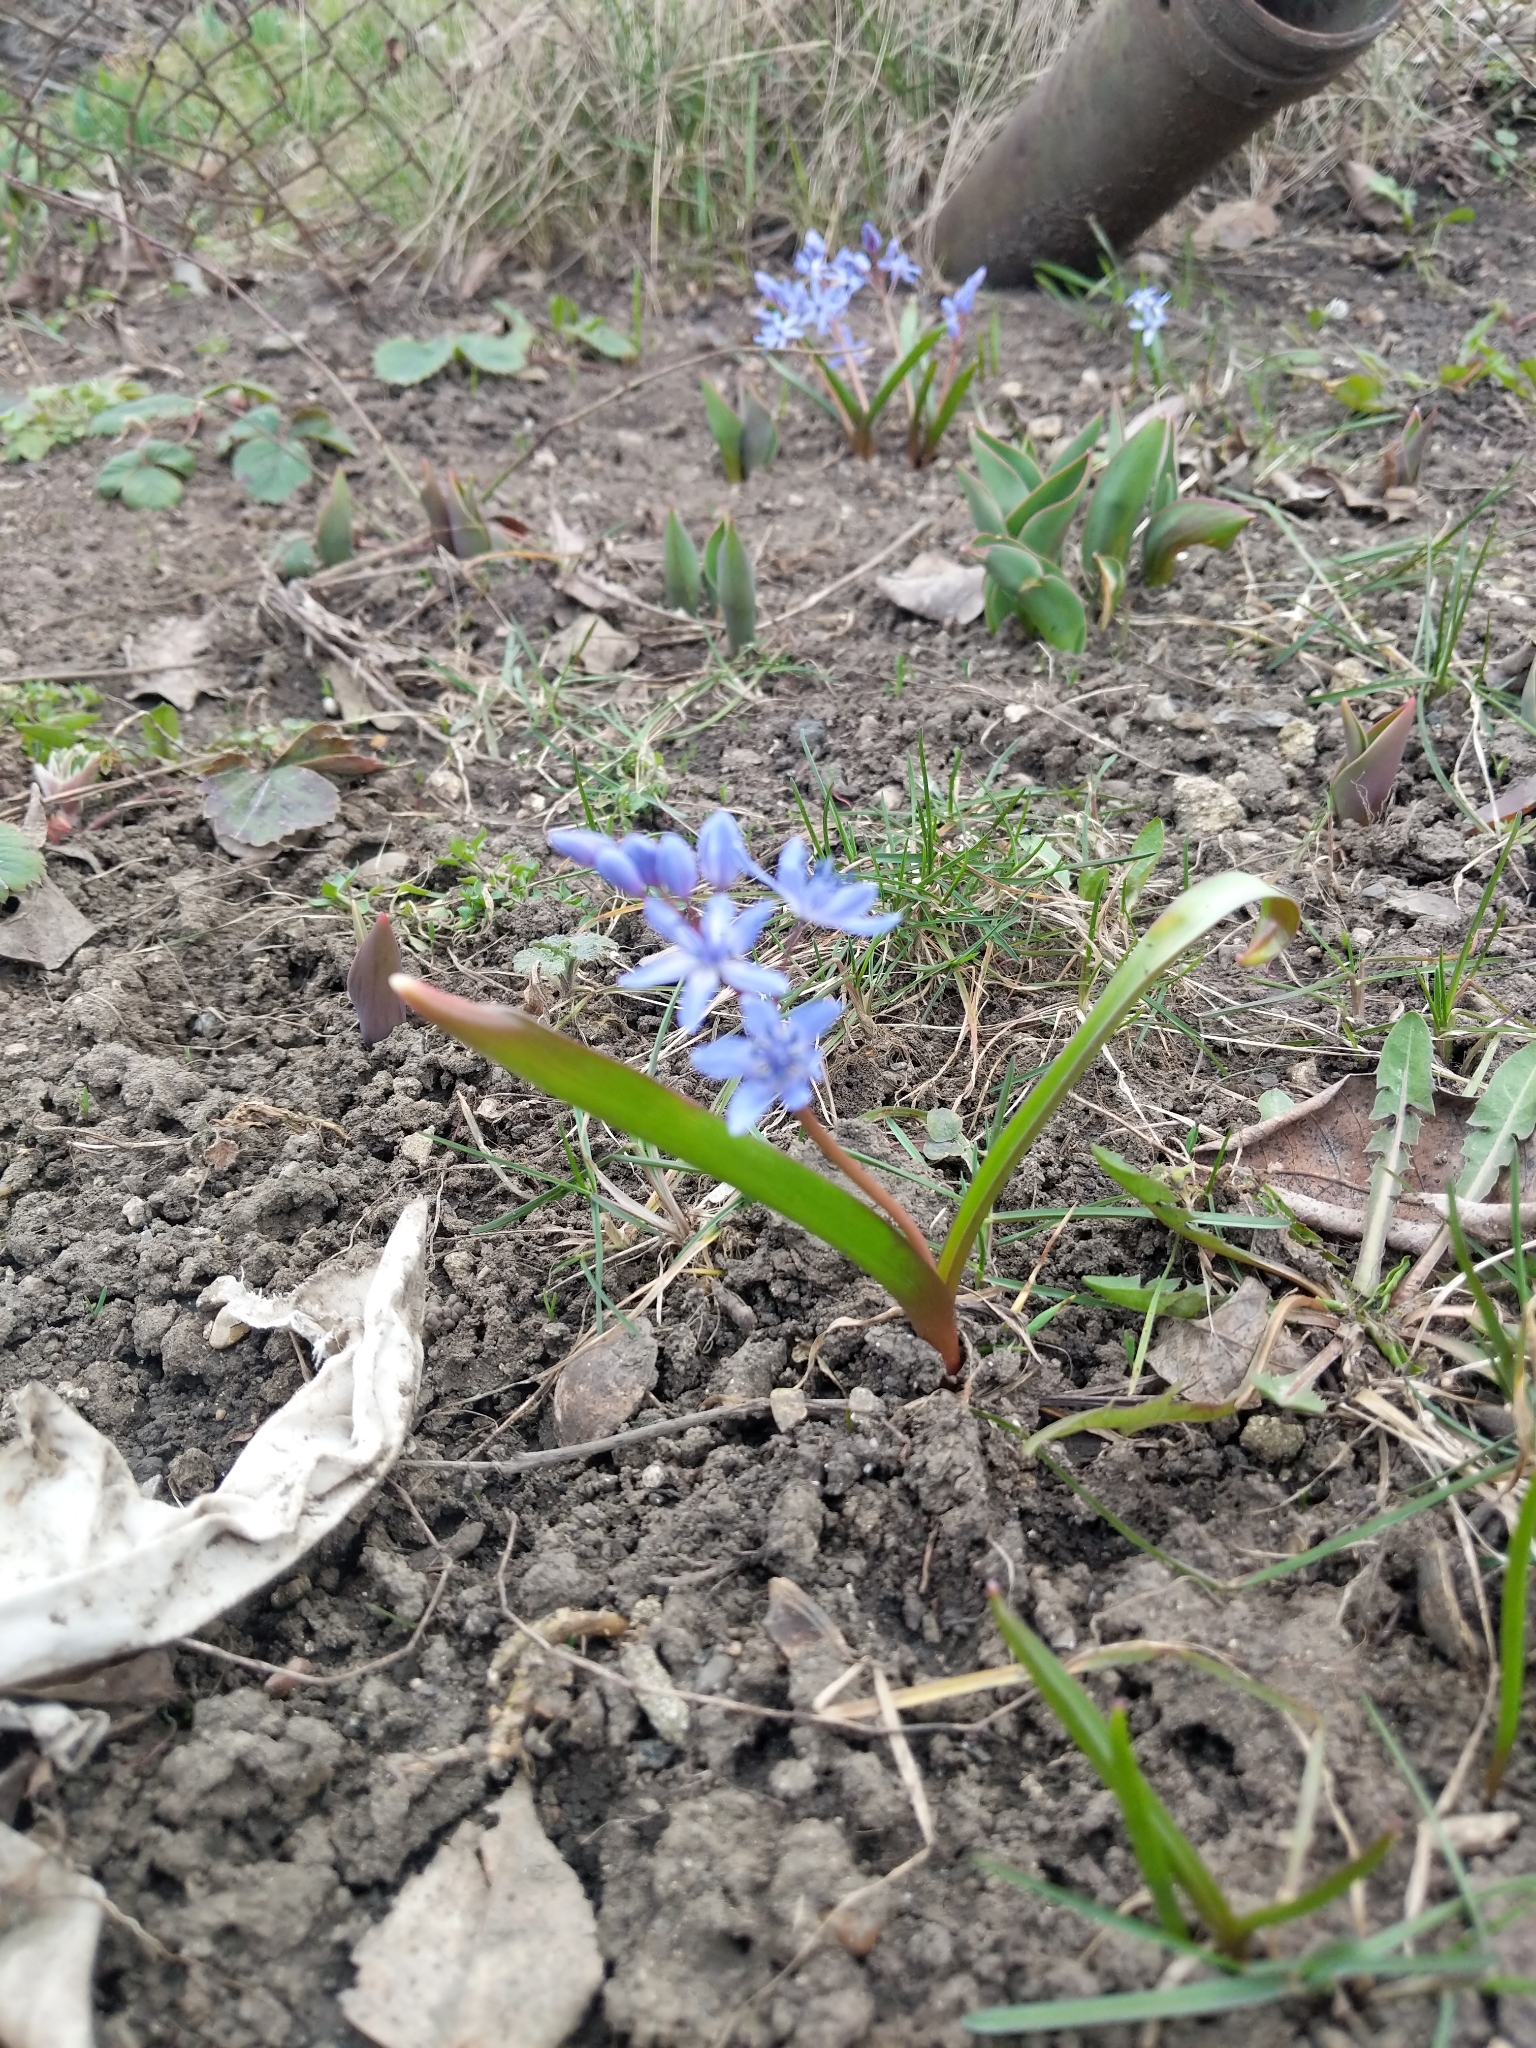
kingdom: Plantae
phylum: Tracheophyta
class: Liliopsida
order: Asparagales
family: Asparagaceae
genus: Scilla
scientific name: Scilla bifolia
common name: Alpine squill
